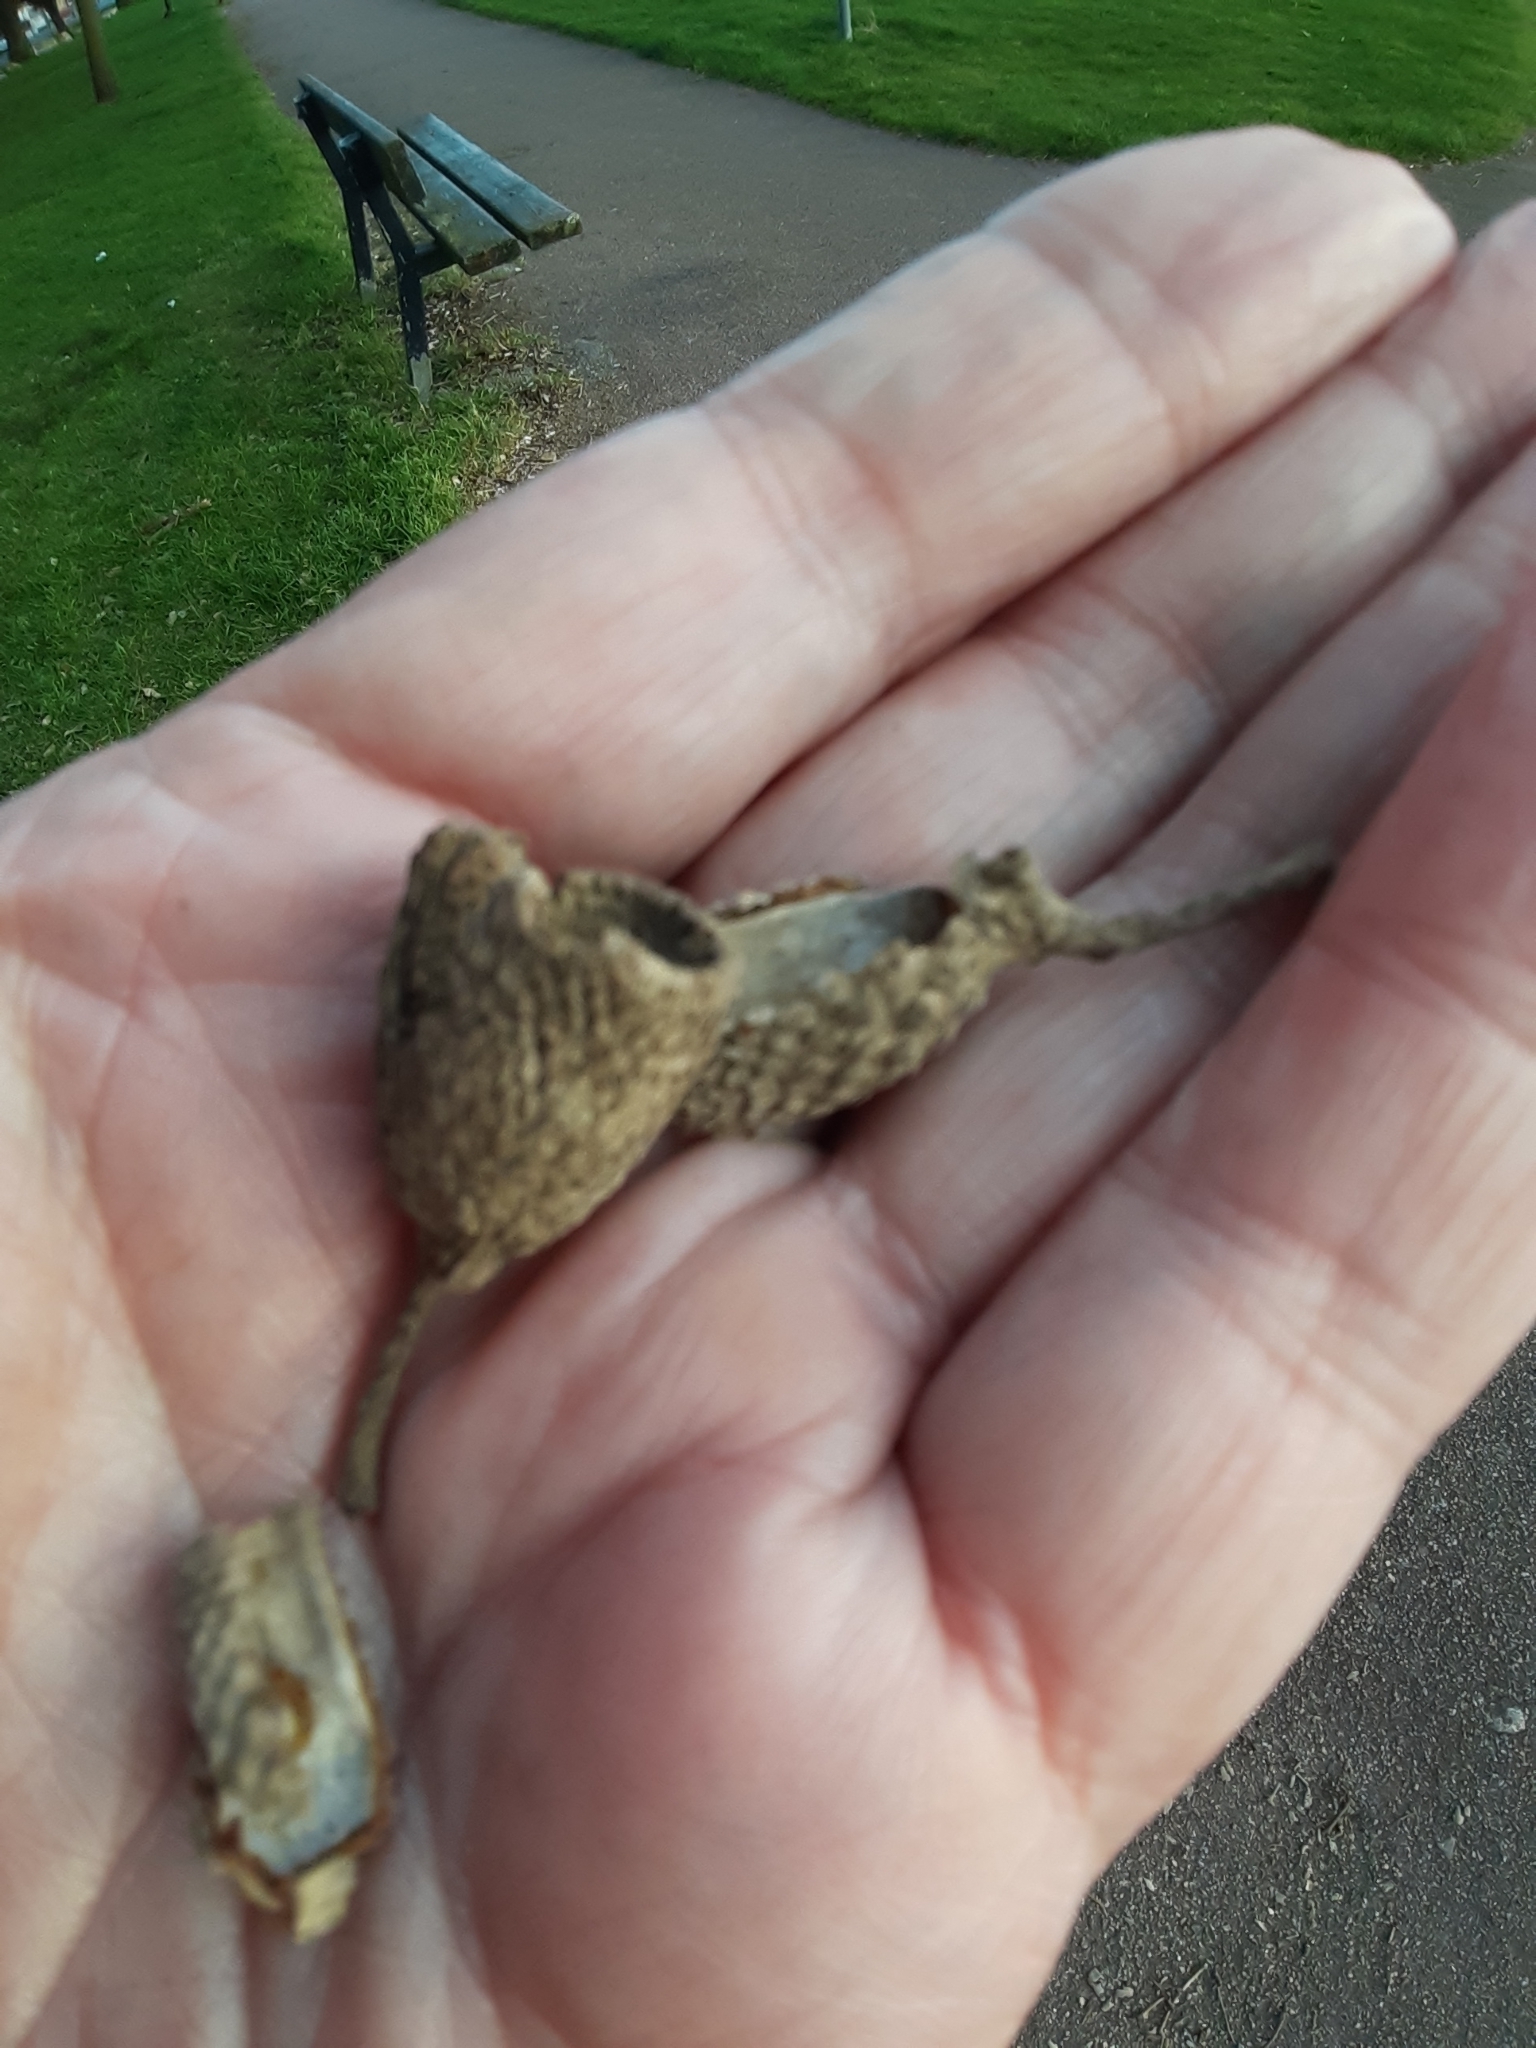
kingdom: Plantae
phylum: Tracheophyta
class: Magnoliopsida
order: Fagales
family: Fagaceae
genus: Quercus
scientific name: Quercus ilex
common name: Evergreen oak
